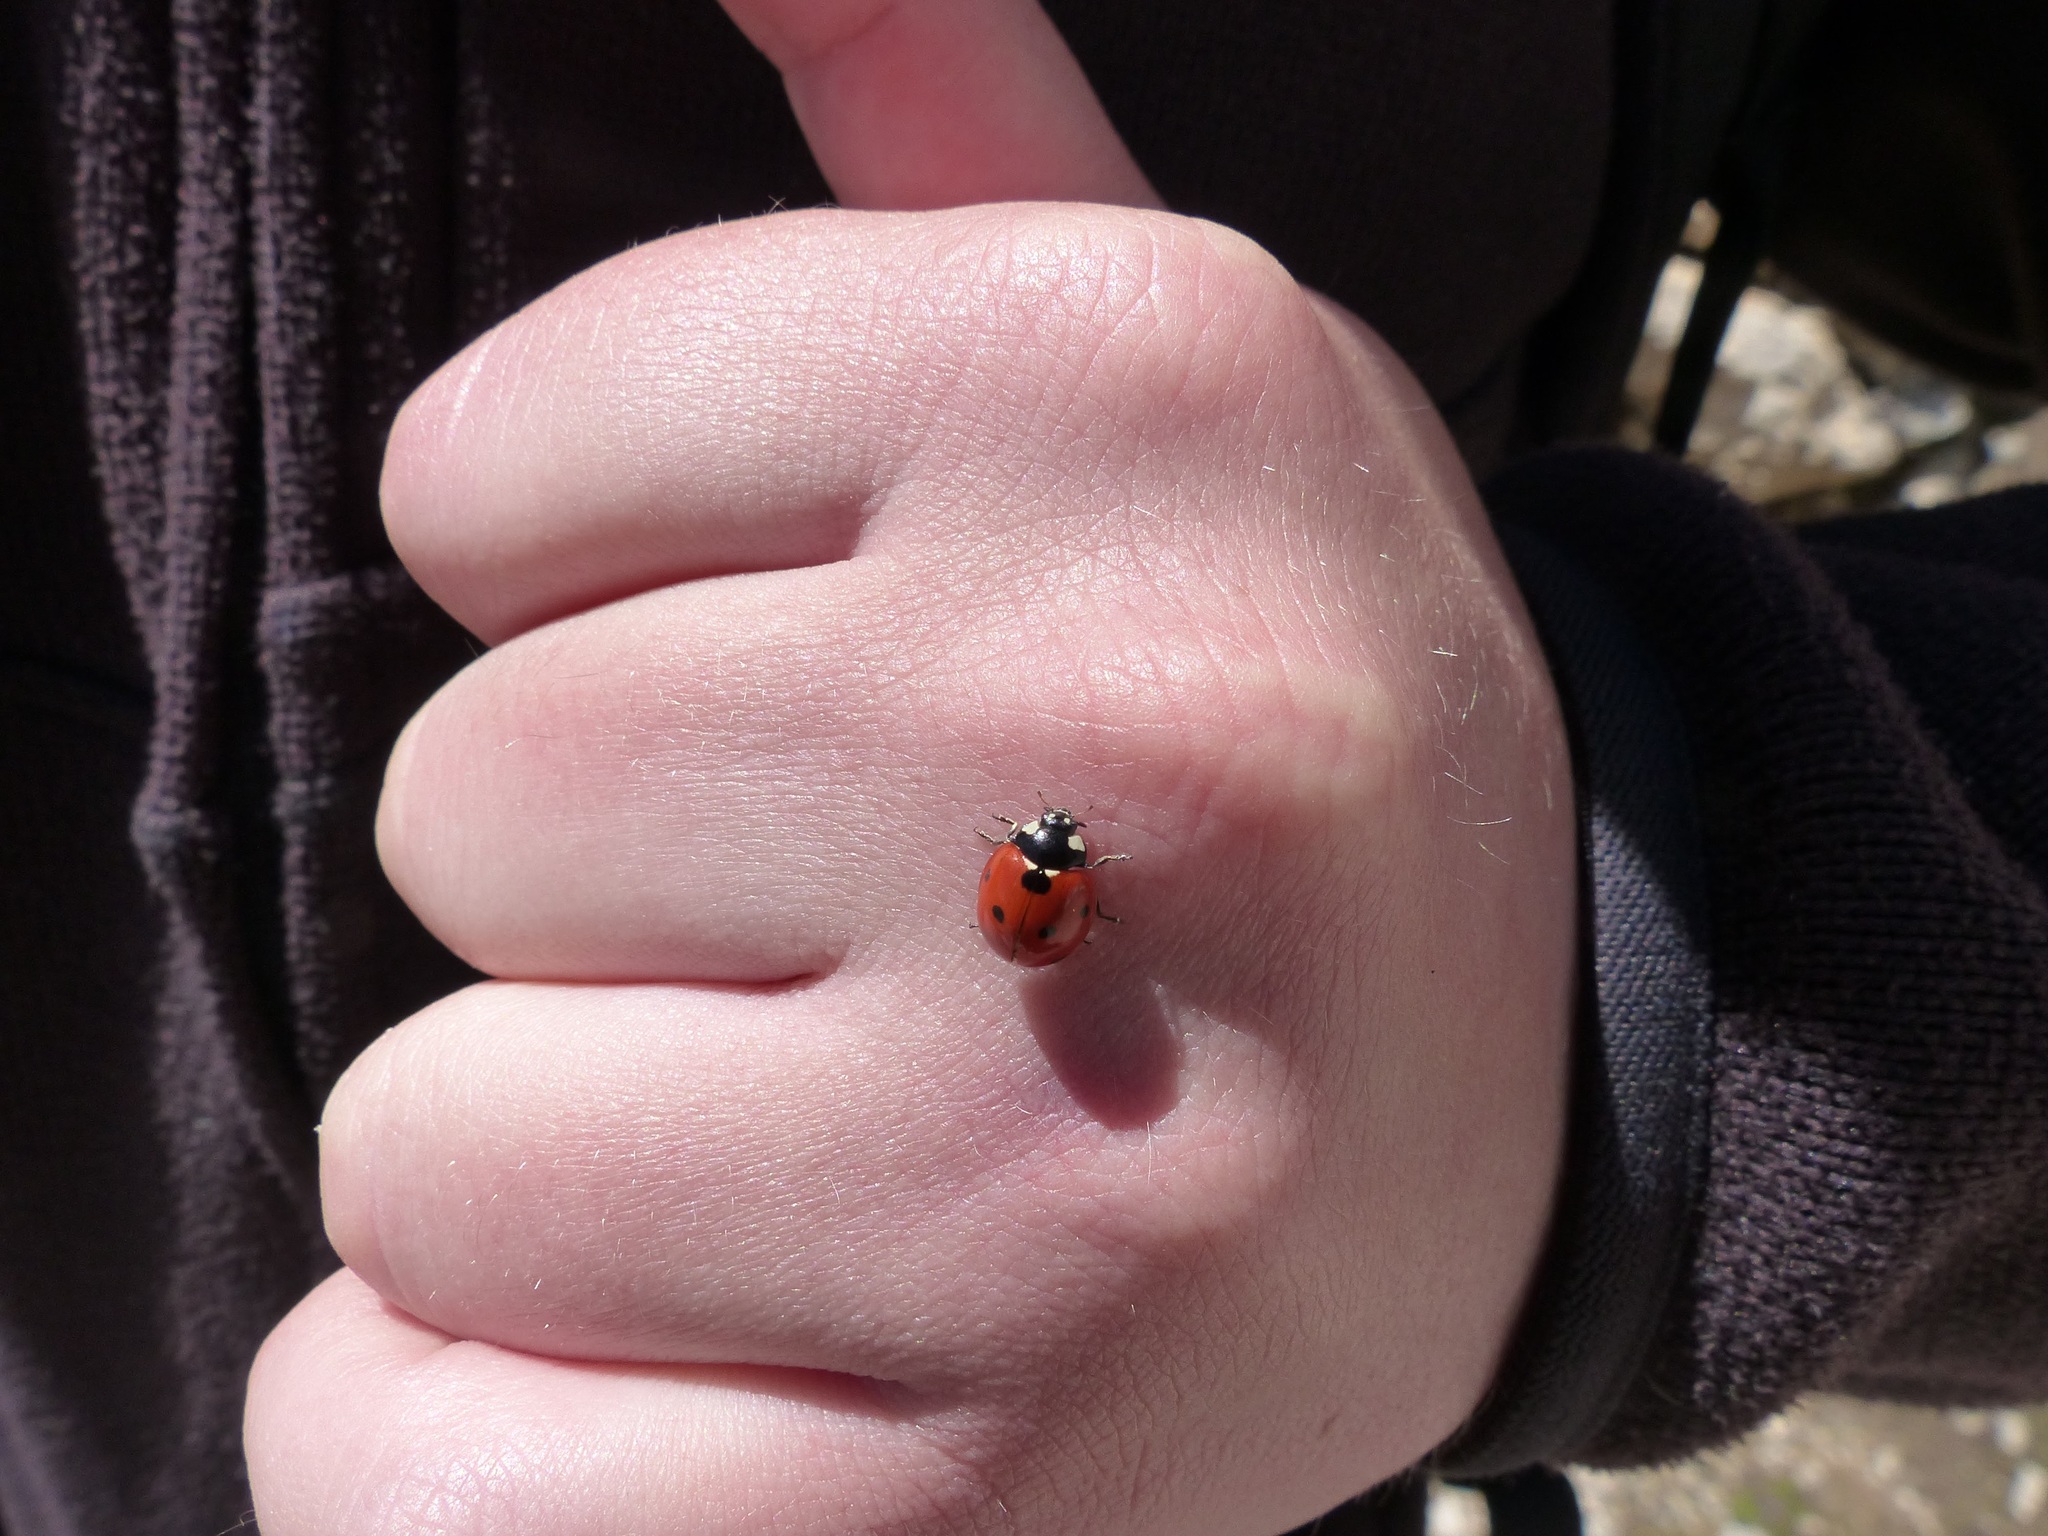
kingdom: Animalia
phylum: Arthropoda
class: Insecta
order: Coleoptera
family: Coccinellidae
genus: Coccinella
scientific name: Coccinella septempunctata
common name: Sevenspotted lady beetle
